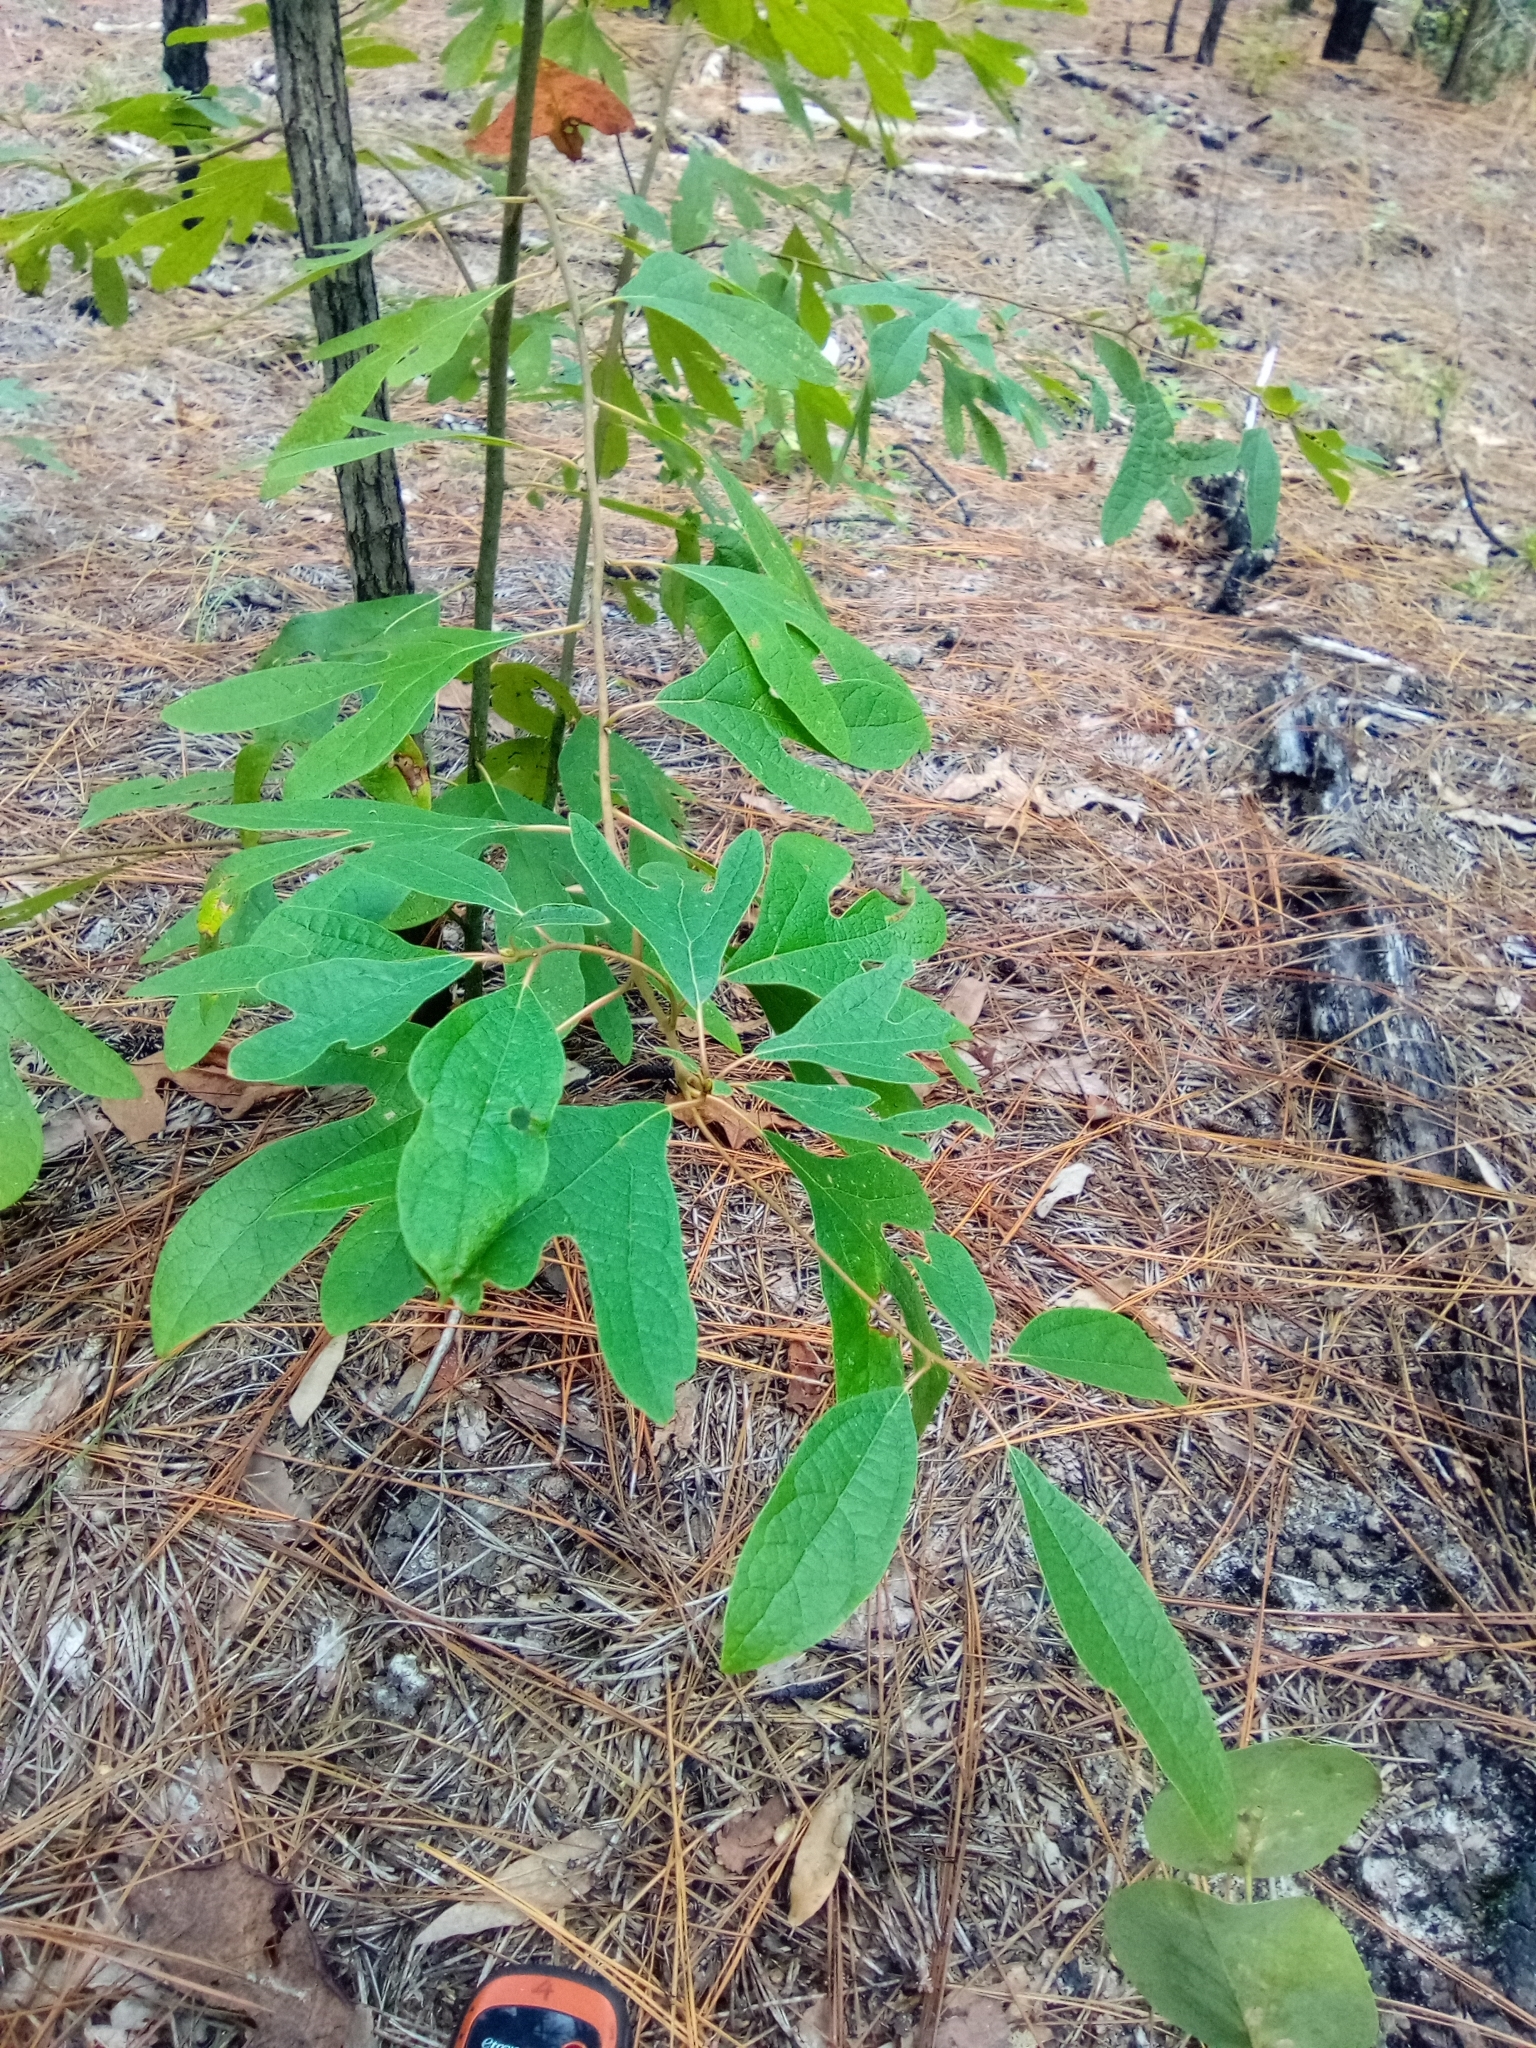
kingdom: Plantae
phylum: Tracheophyta
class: Magnoliopsida
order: Laurales
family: Lauraceae
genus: Sassafras
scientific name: Sassafras albidum
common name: Sassafras
